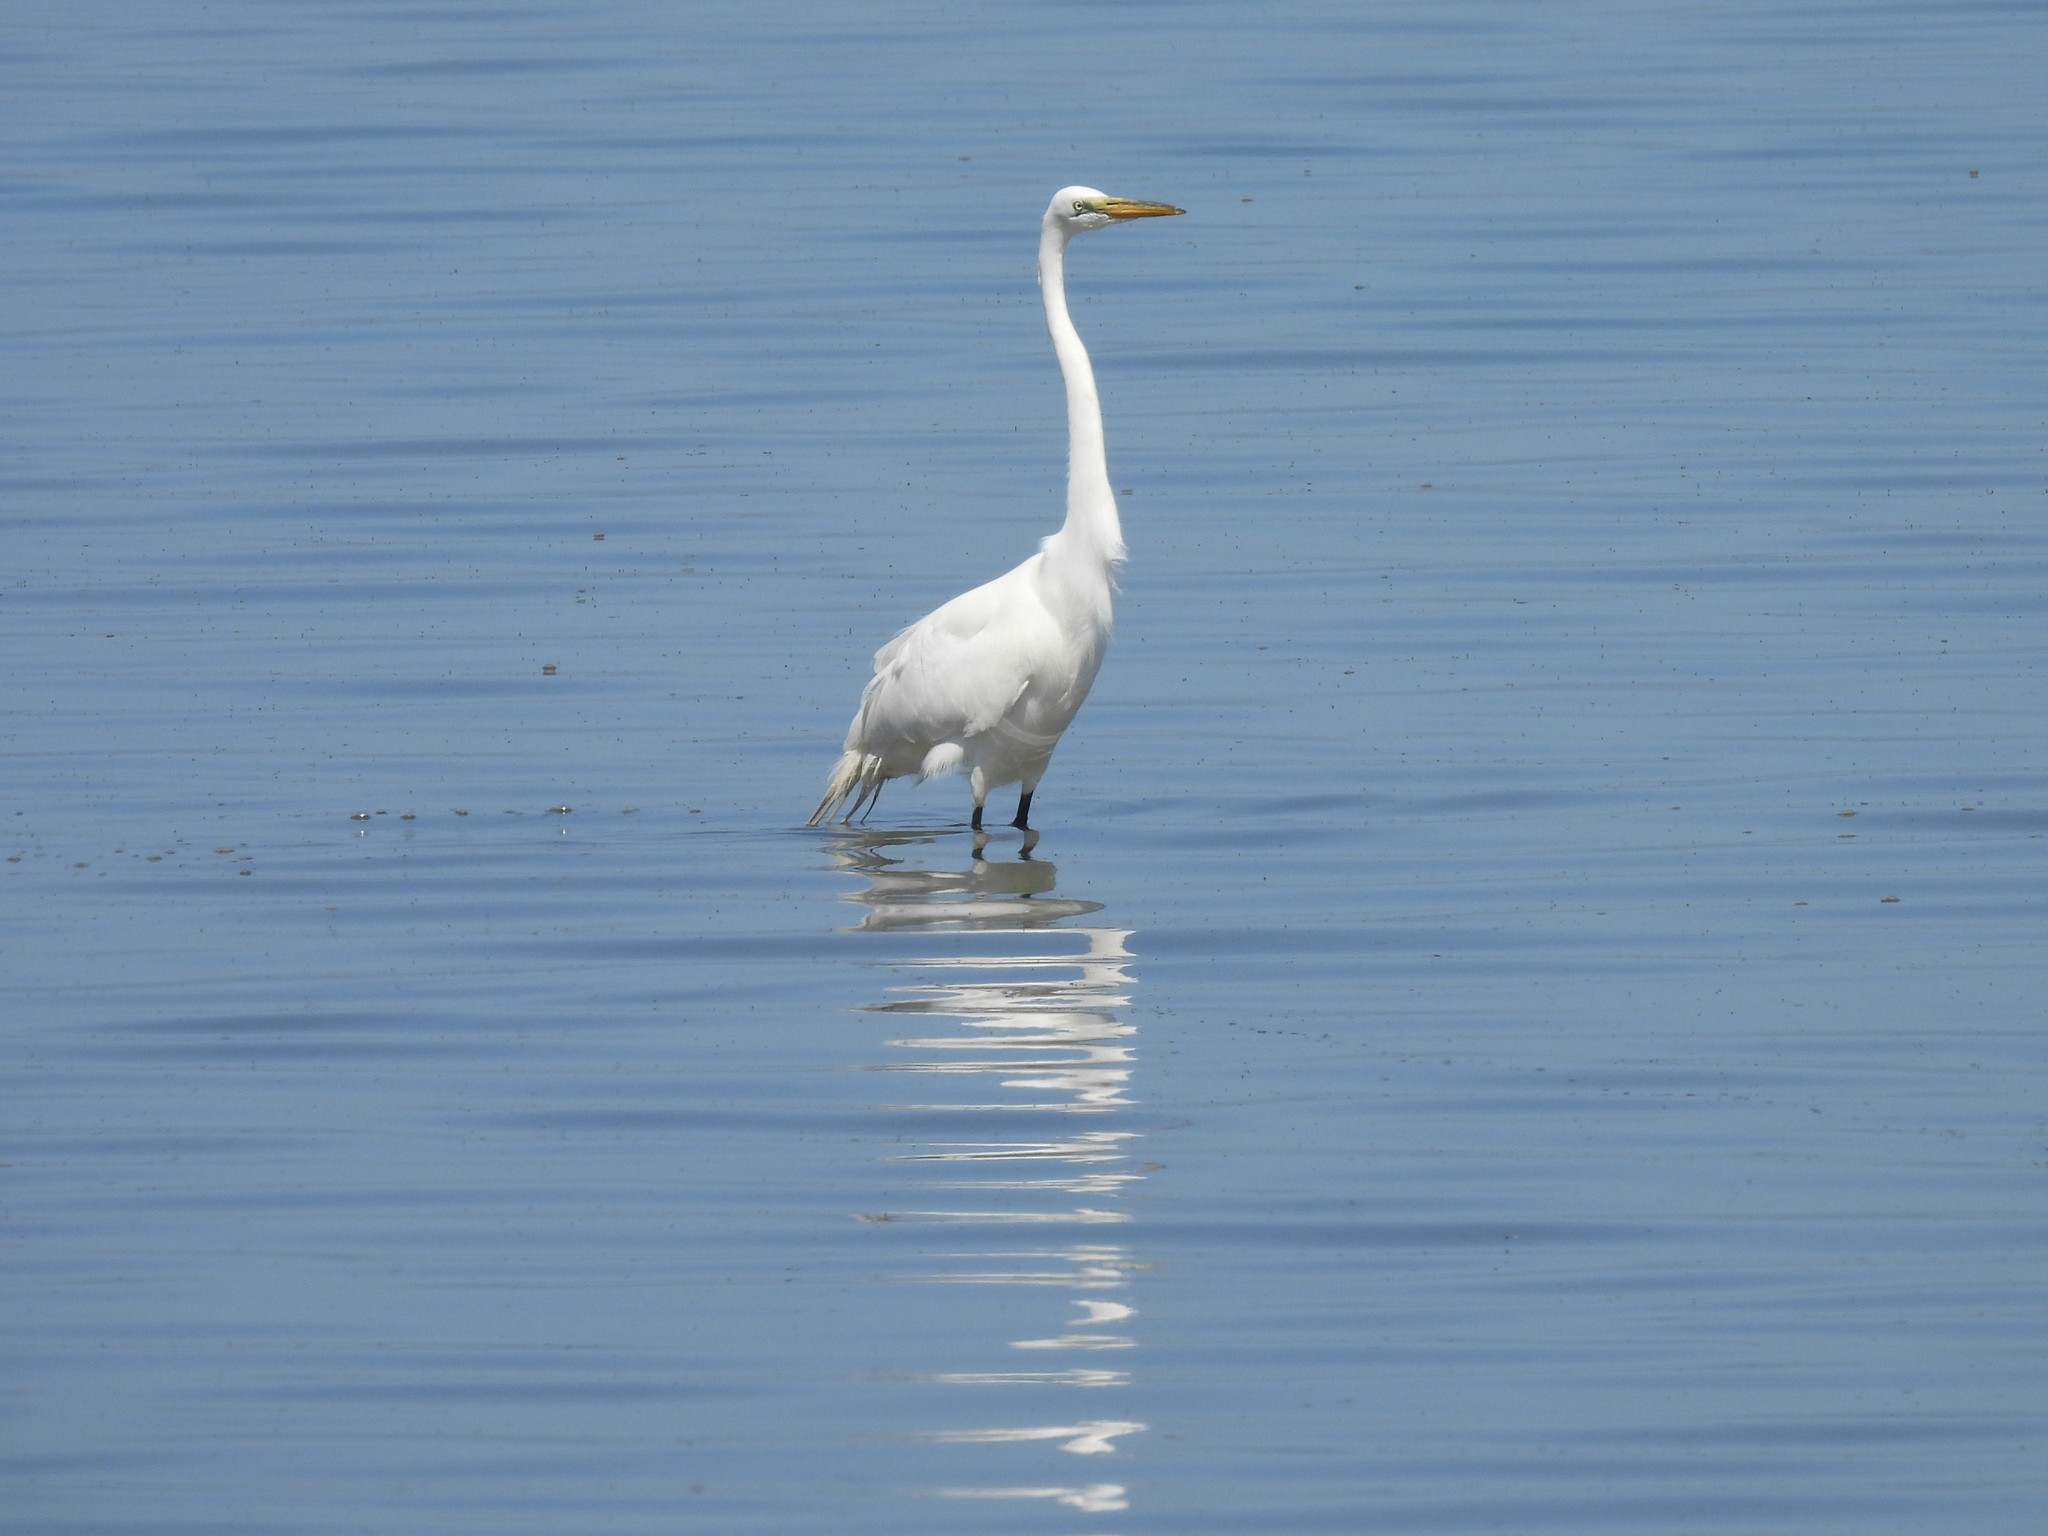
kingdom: Animalia
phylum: Chordata
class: Aves
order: Pelecaniformes
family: Ardeidae
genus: Ardea
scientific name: Ardea alba
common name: Great egret
